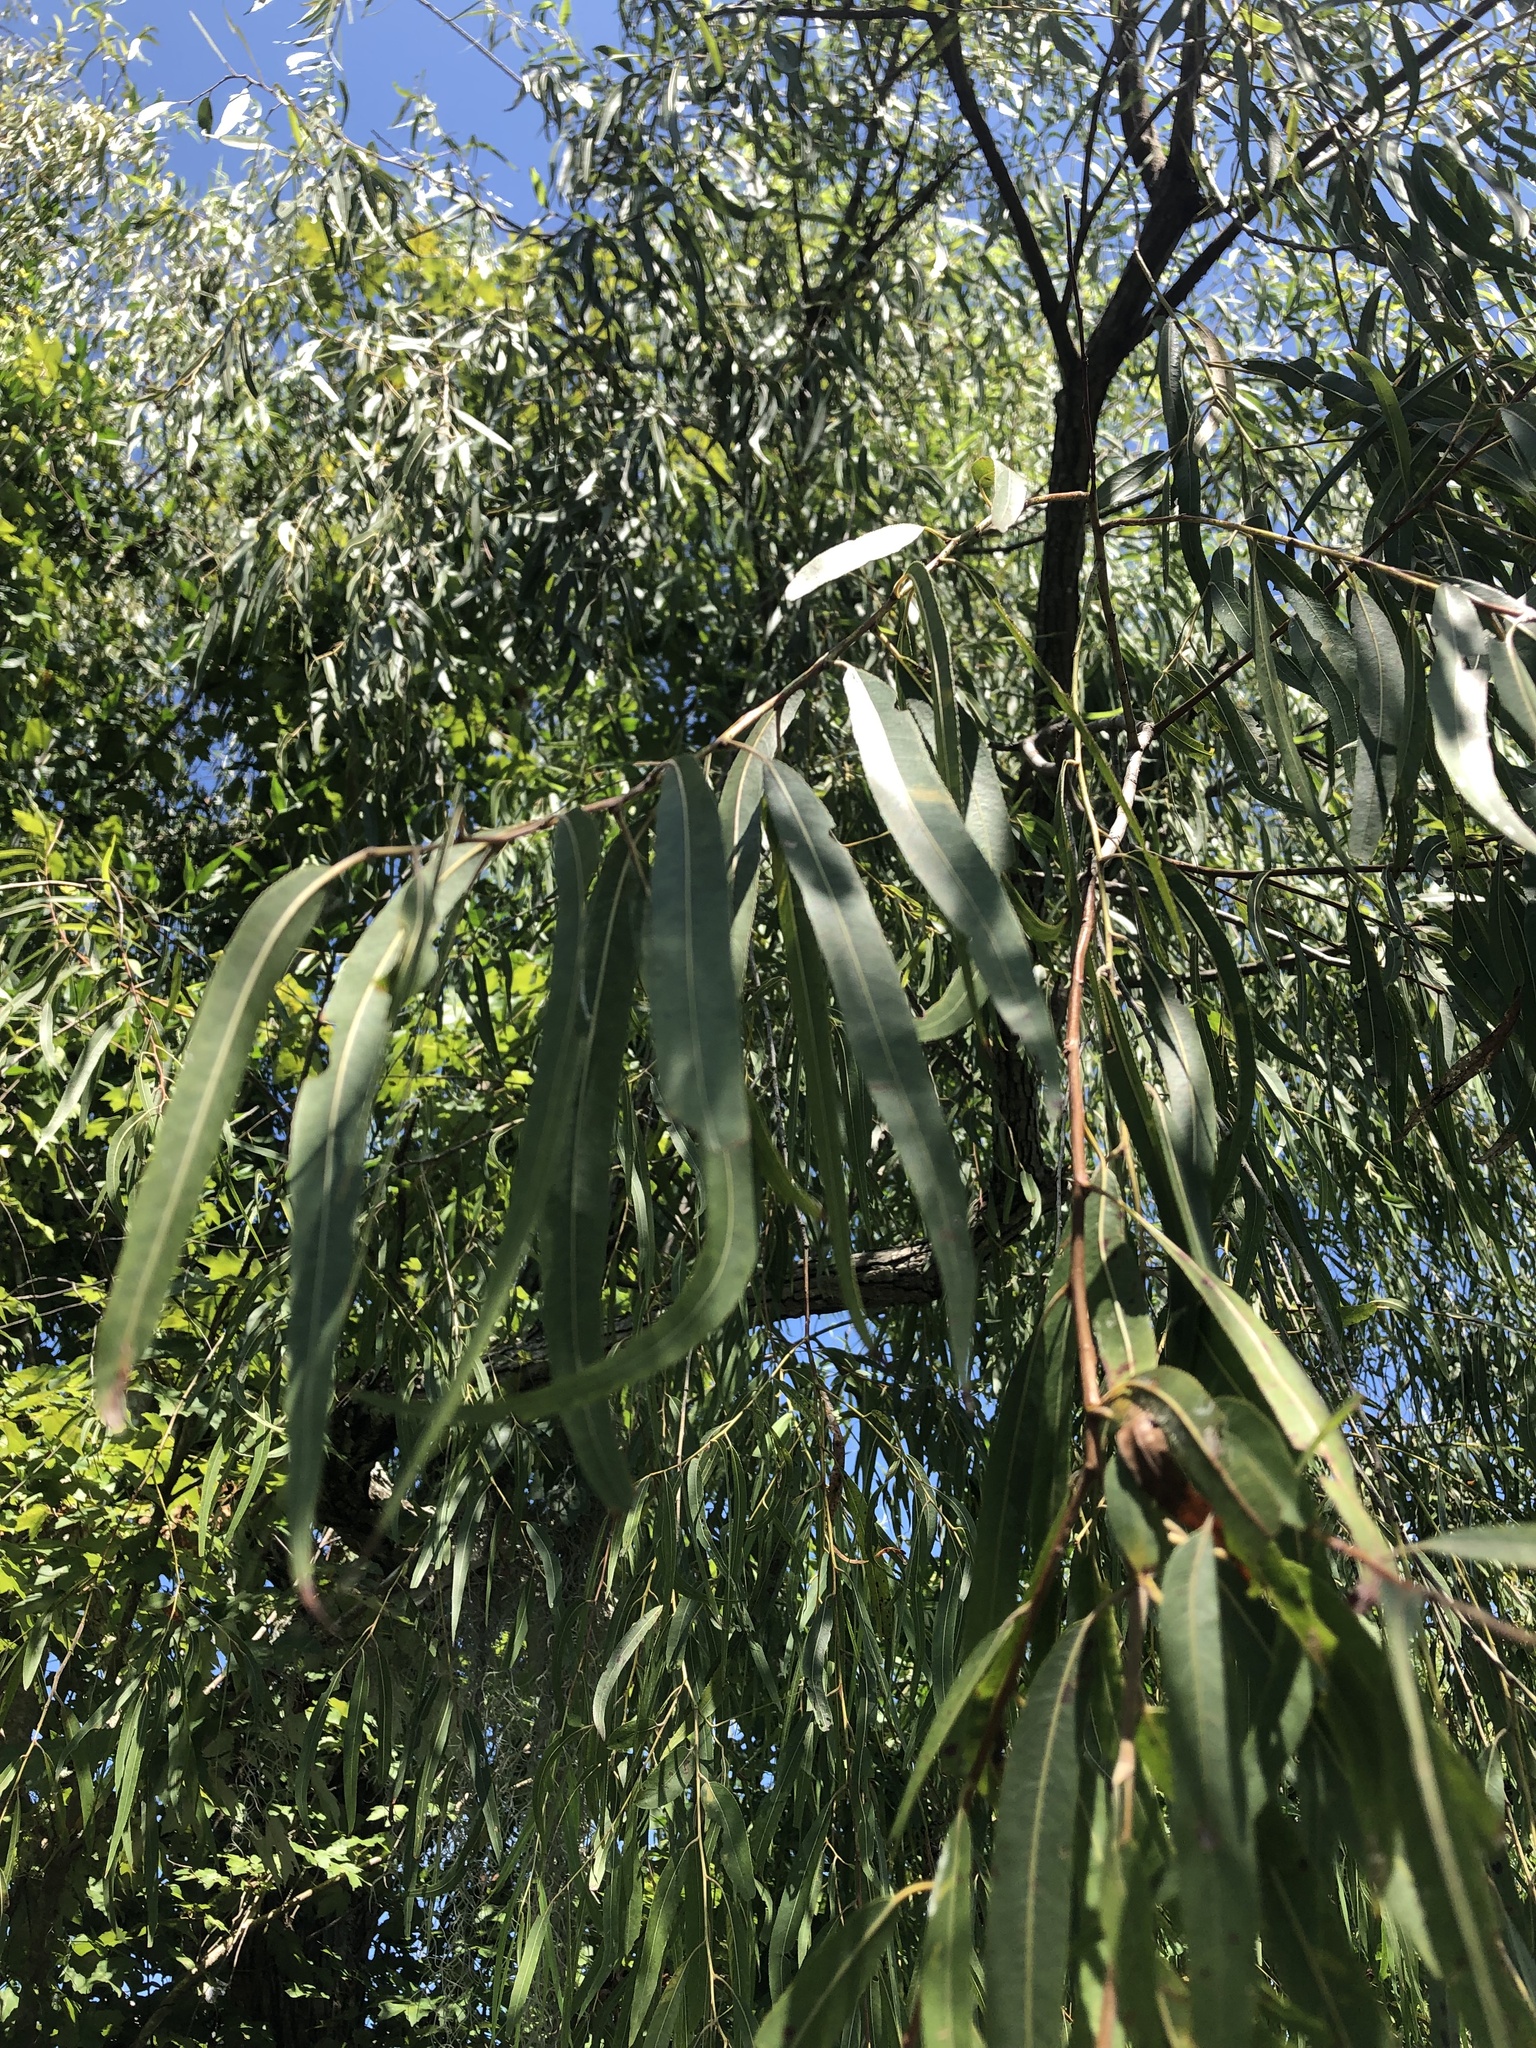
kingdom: Plantae
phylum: Tracheophyta
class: Magnoliopsida
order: Malpighiales
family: Salicaceae
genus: Salix
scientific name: Salix nigra
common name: Black willow
